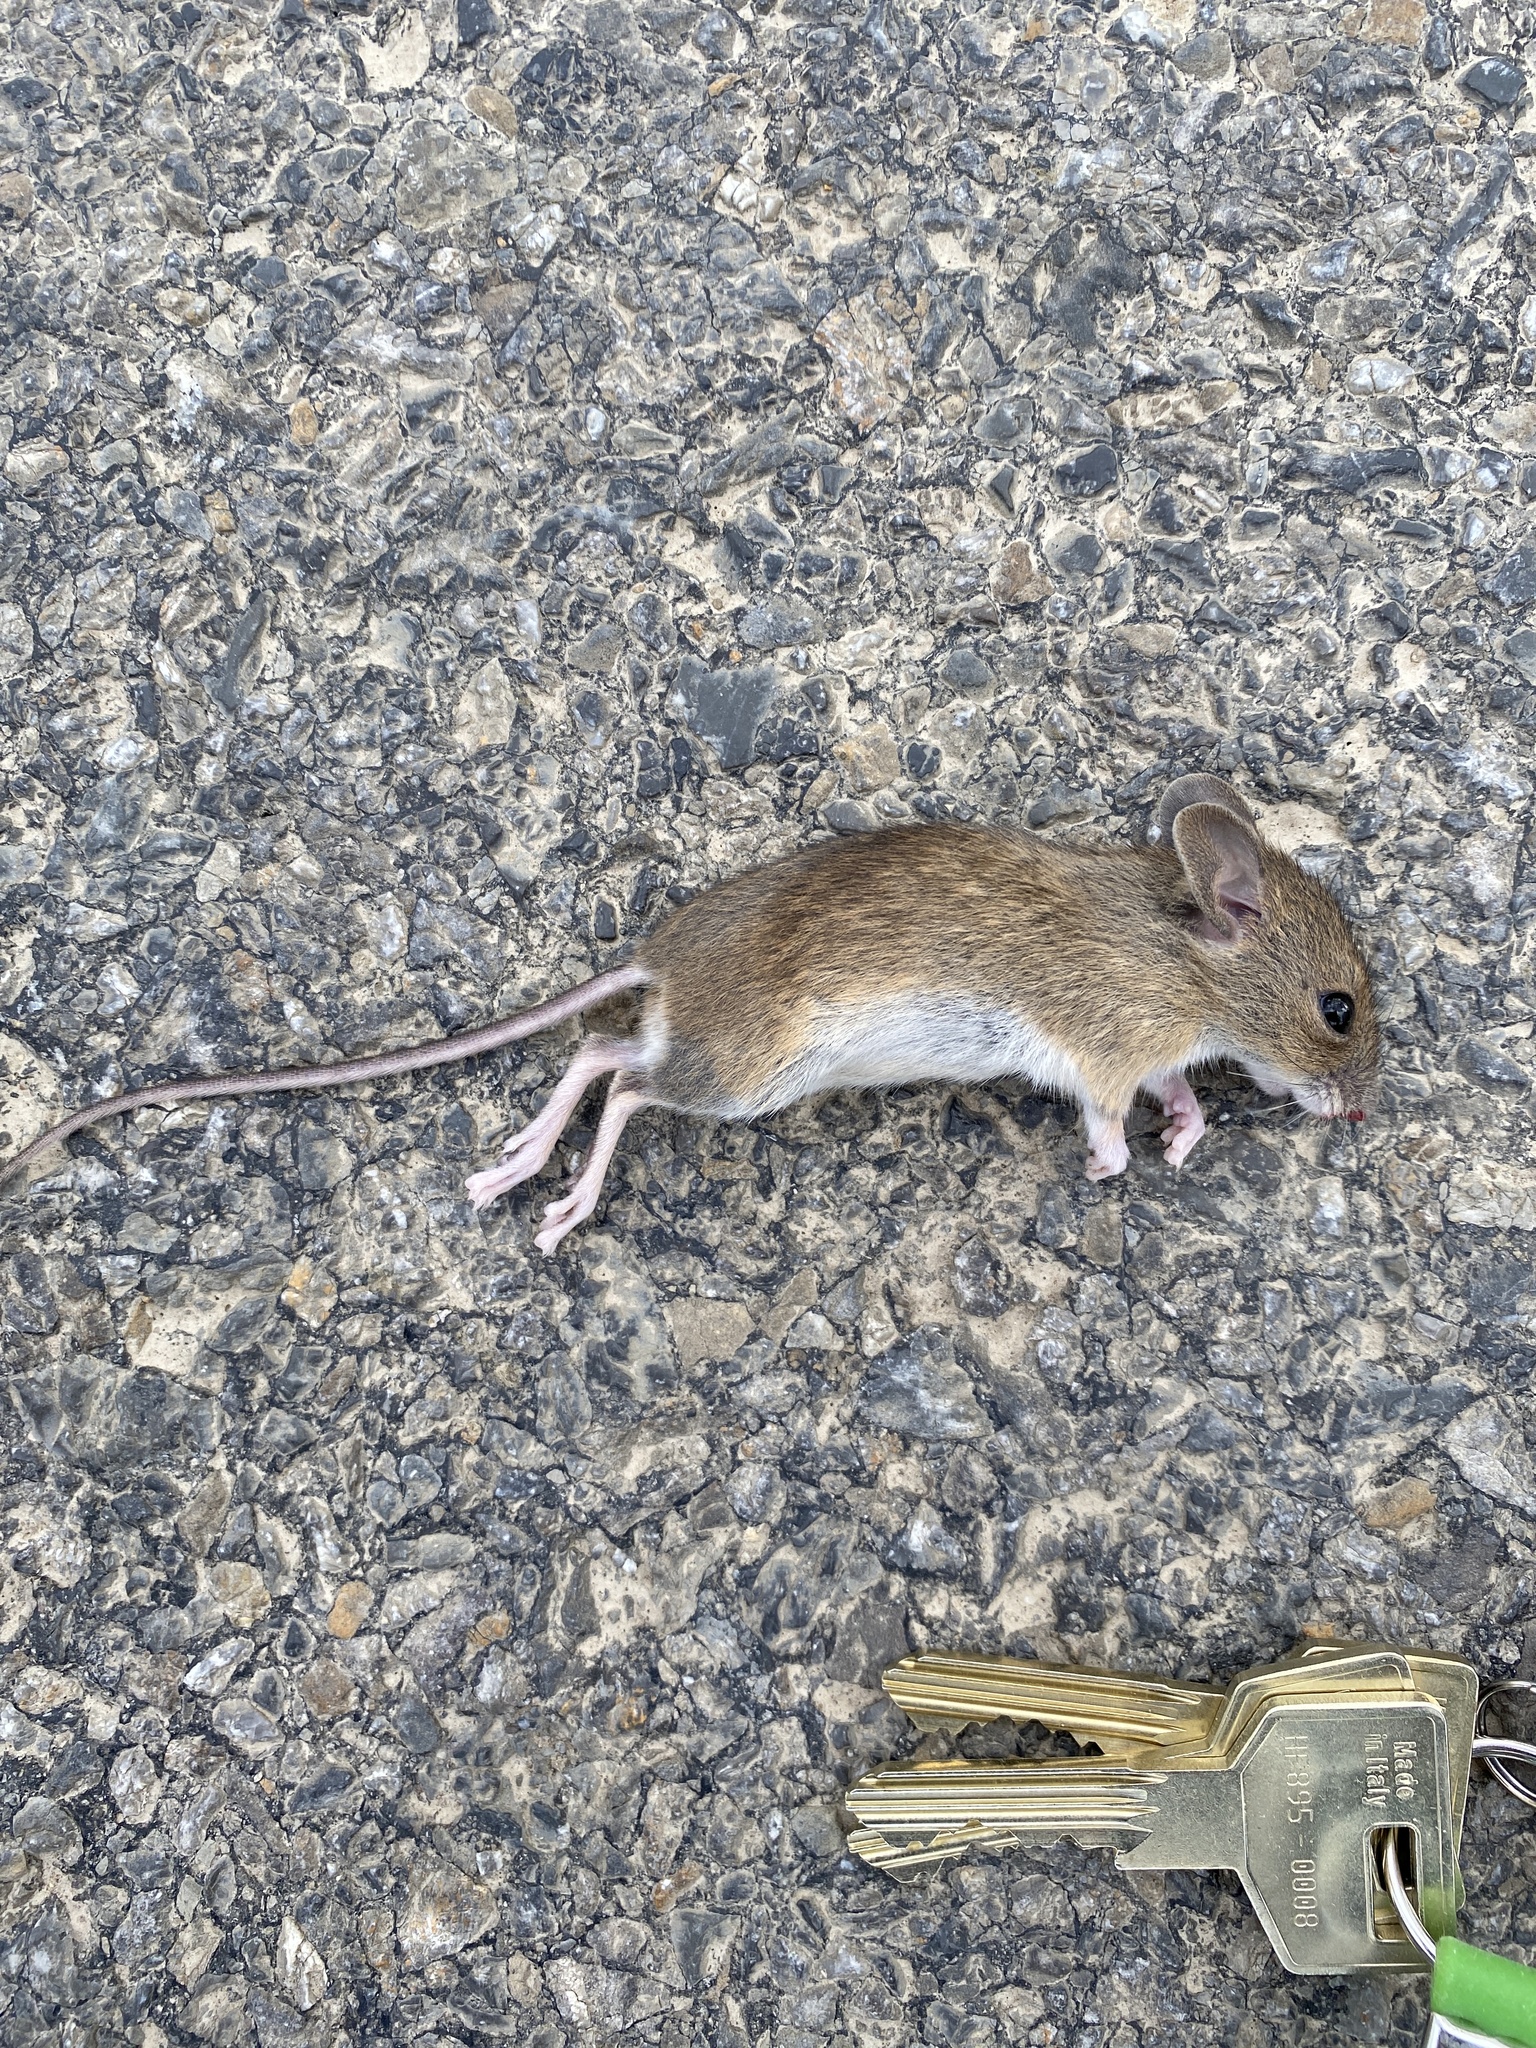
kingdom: Animalia
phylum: Chordata
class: Mammalia
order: Rodentia
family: Muridae
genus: Apodemus
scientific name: Apodemus sylvaticus
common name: Wood mouse
